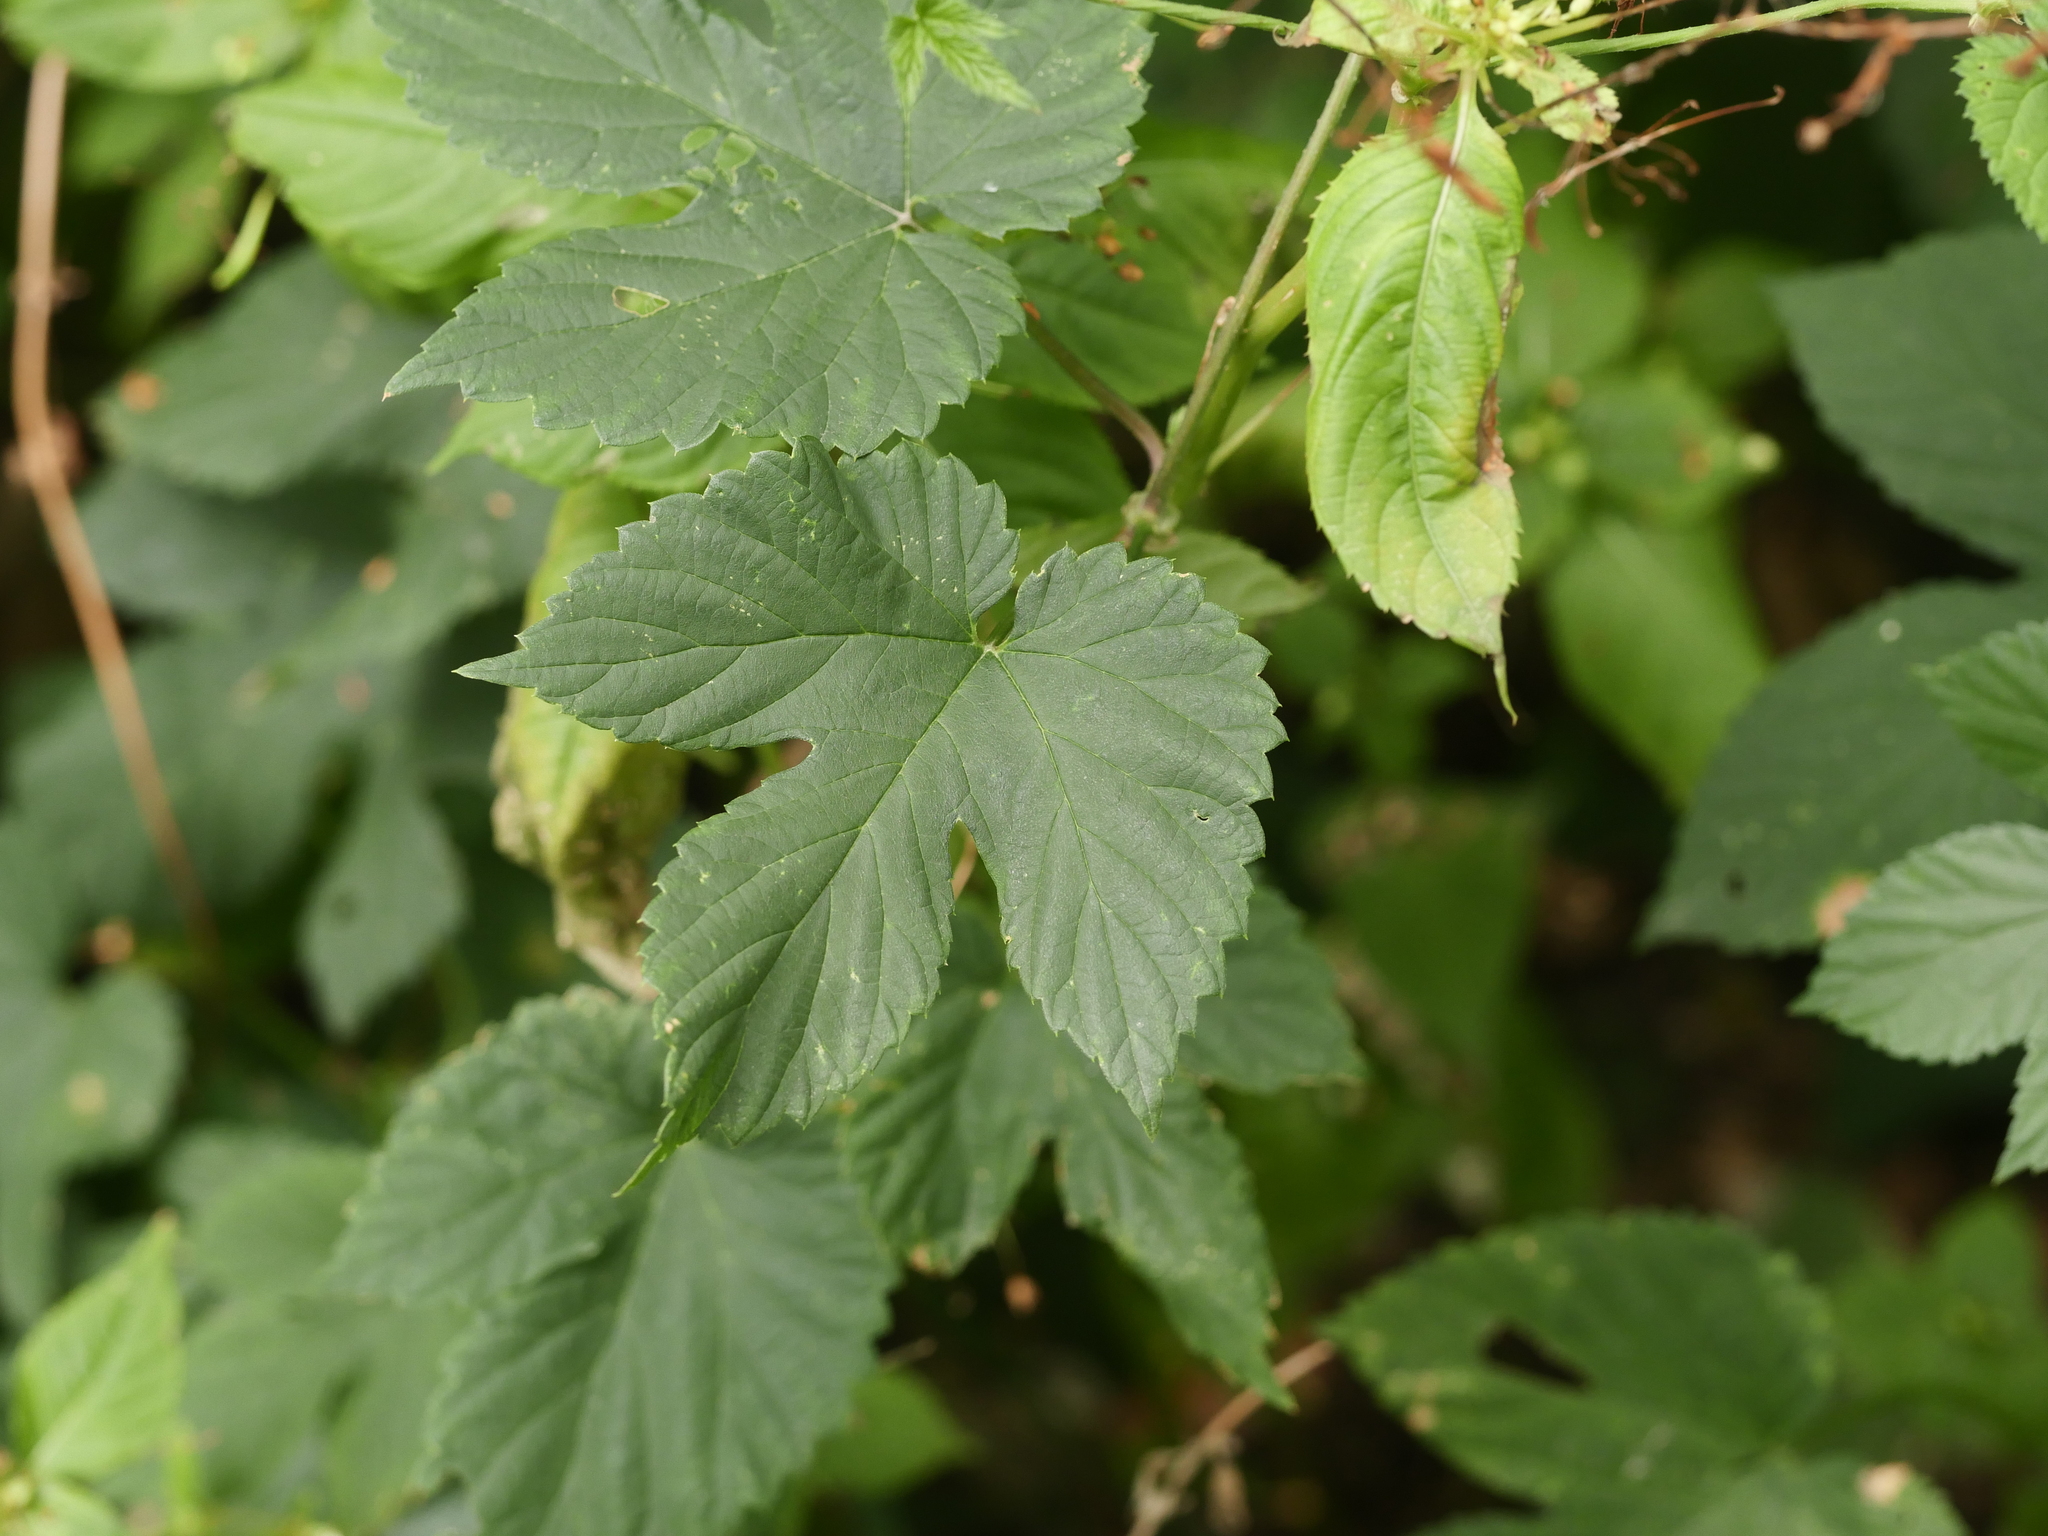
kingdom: Plantae
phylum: Tracheophyta
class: Magnoliopsida
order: Rosales
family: Cannabaceae
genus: Humulus
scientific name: Humulus lupulus
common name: Hop
